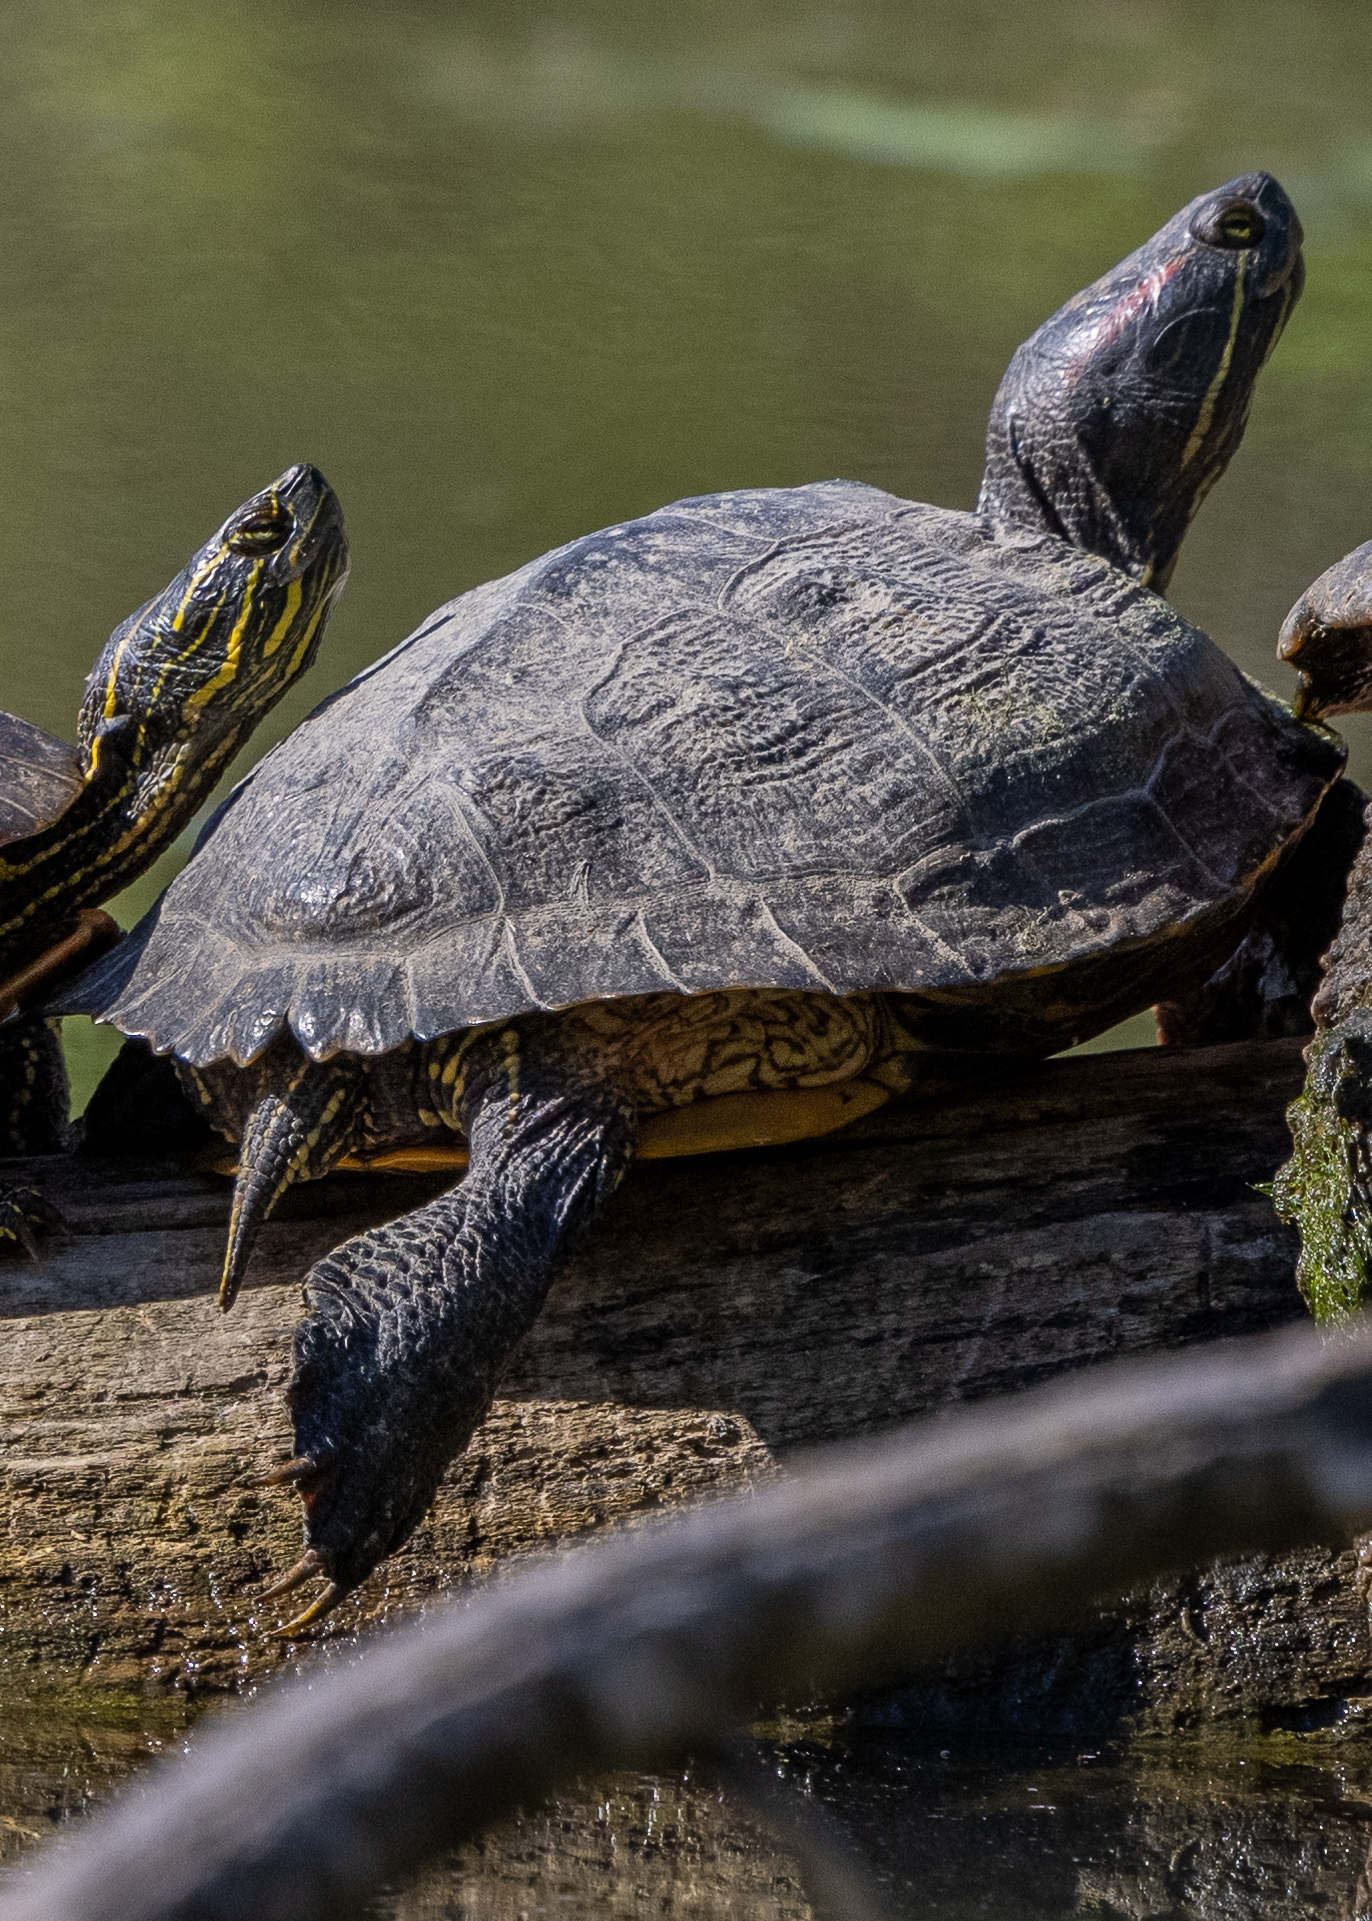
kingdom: Animalia
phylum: Chordata
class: Testudines
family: Emydidae
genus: Trachemys
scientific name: Trachemys scripta
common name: Slider
